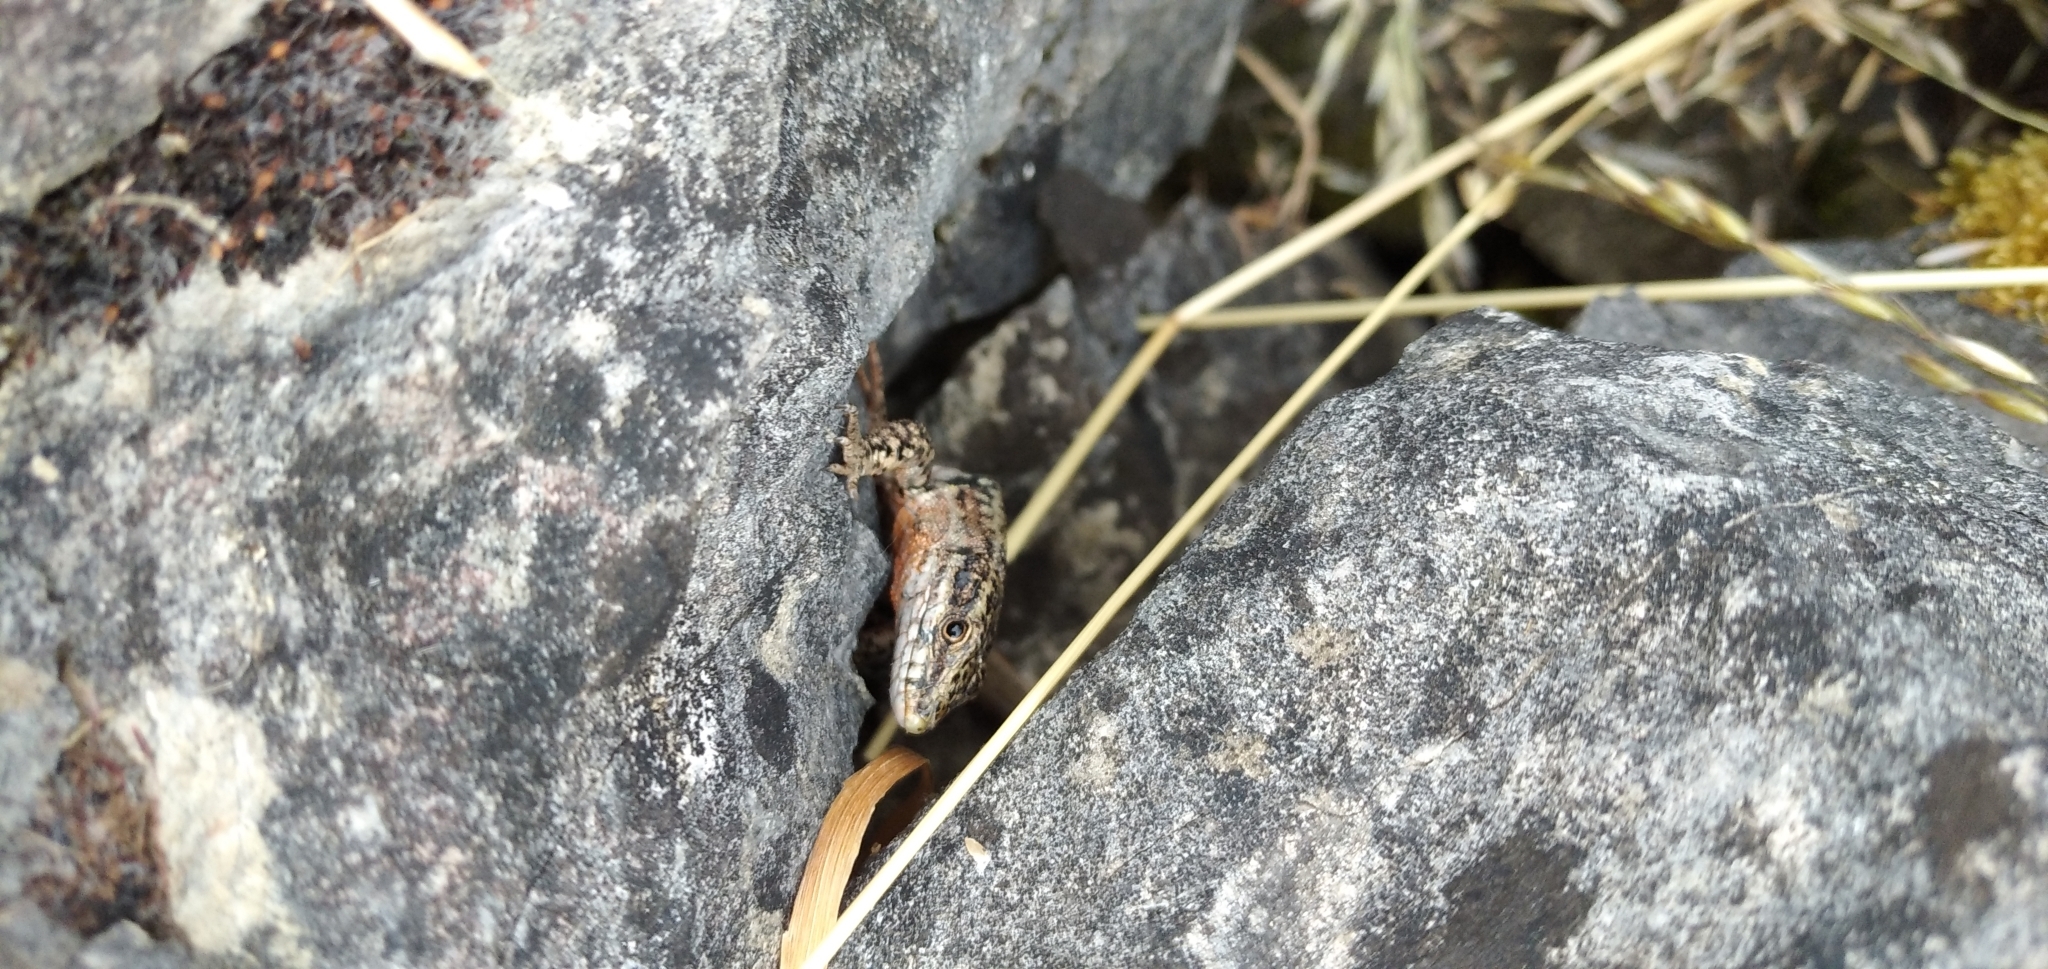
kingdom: Animalia
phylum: Chordata
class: Squamata
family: Lacertidae
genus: Podarcis
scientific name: Podarcis muralis
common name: Common wall lizard
